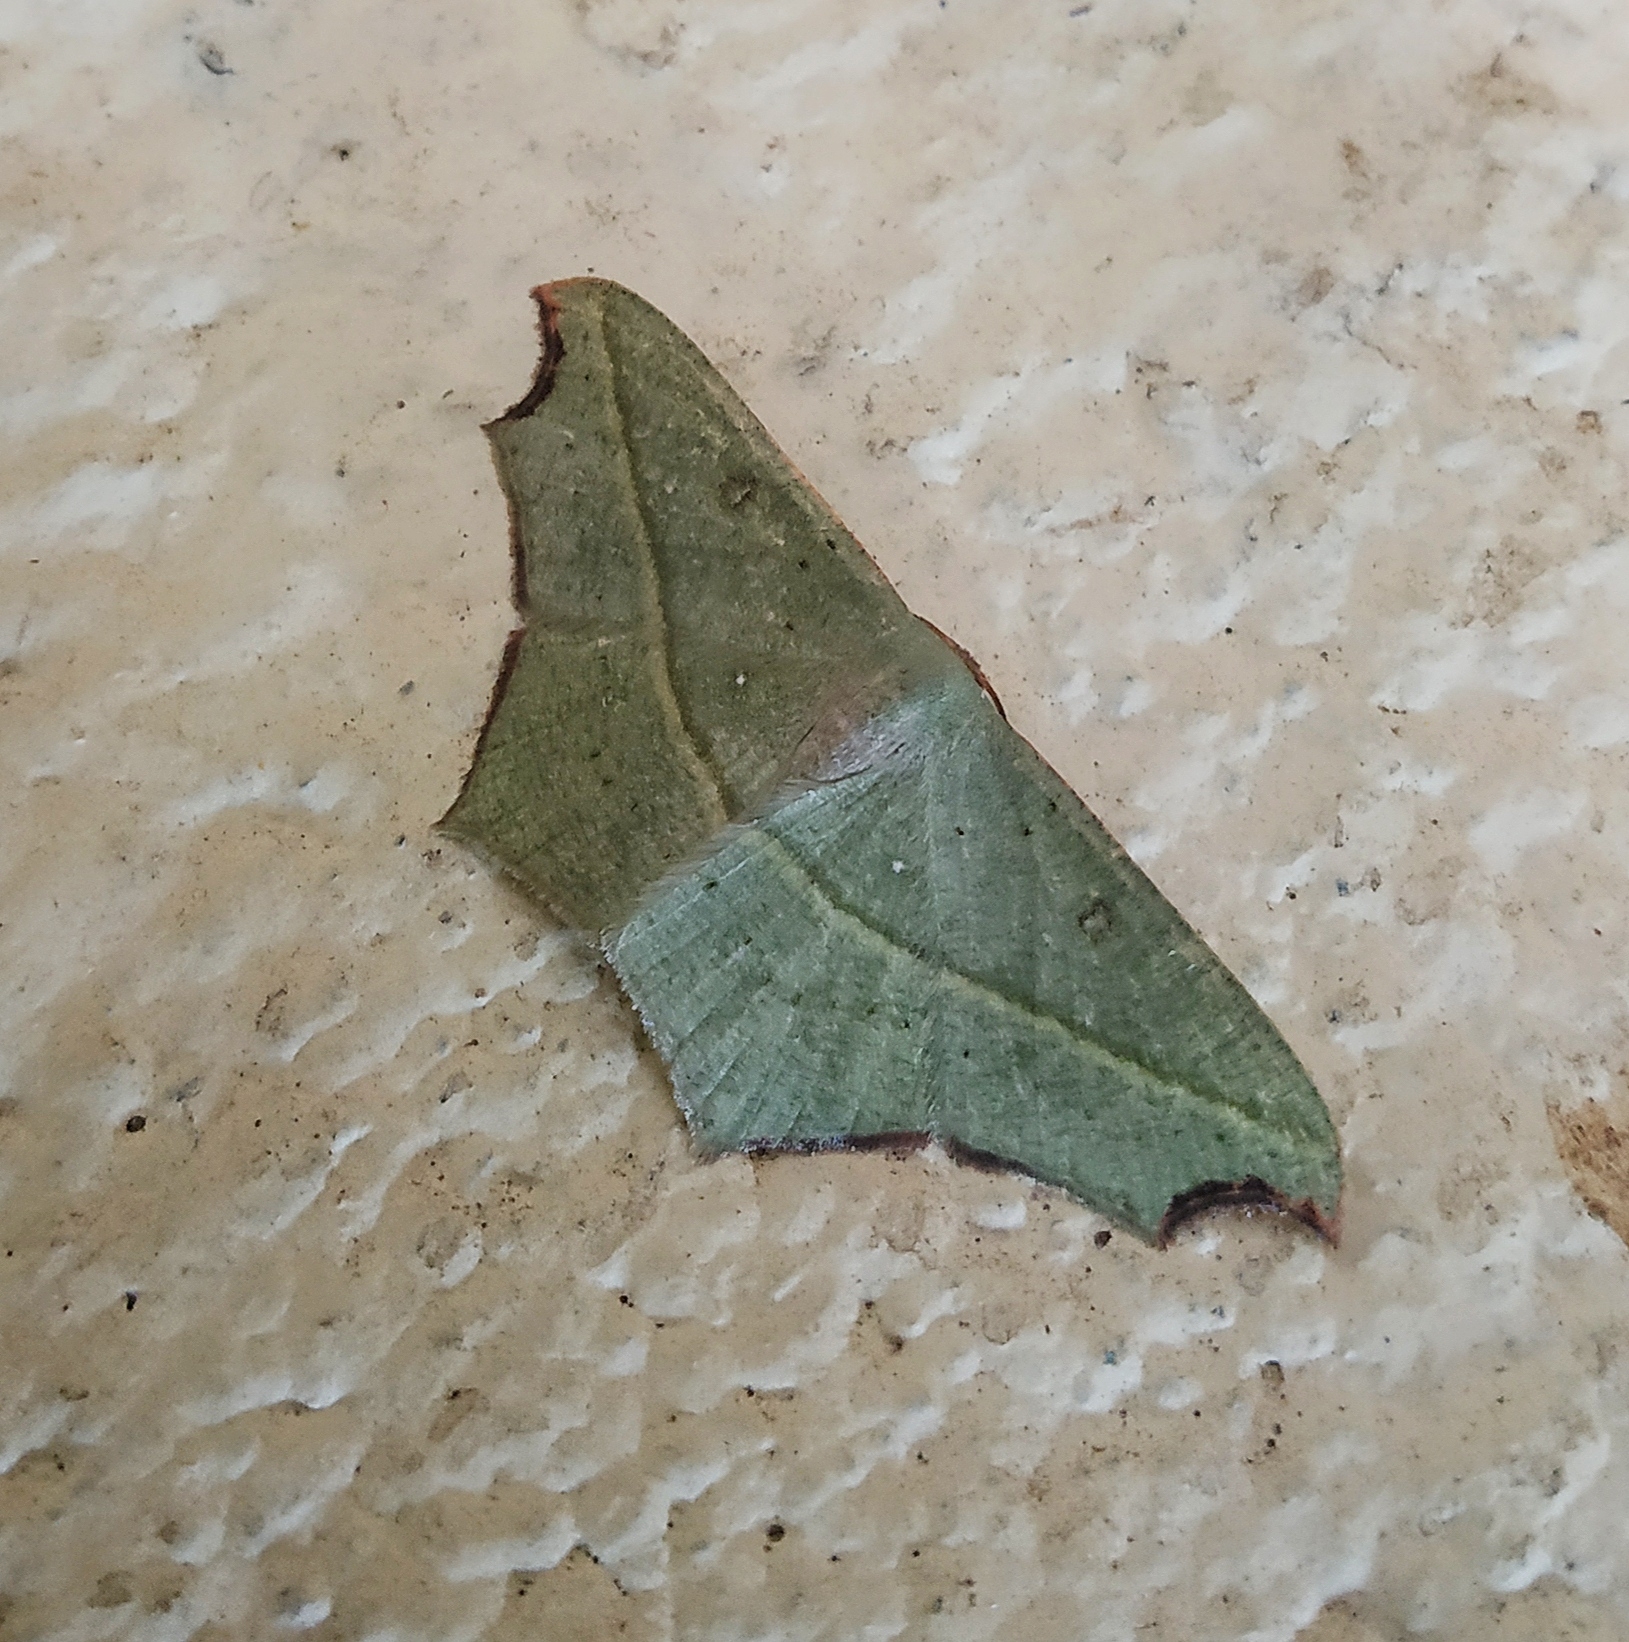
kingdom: Animalia
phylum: Arthropoda
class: Insecta
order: Lepidoptera
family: Geometridae
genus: Traminda
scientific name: Traminda aventiaria
